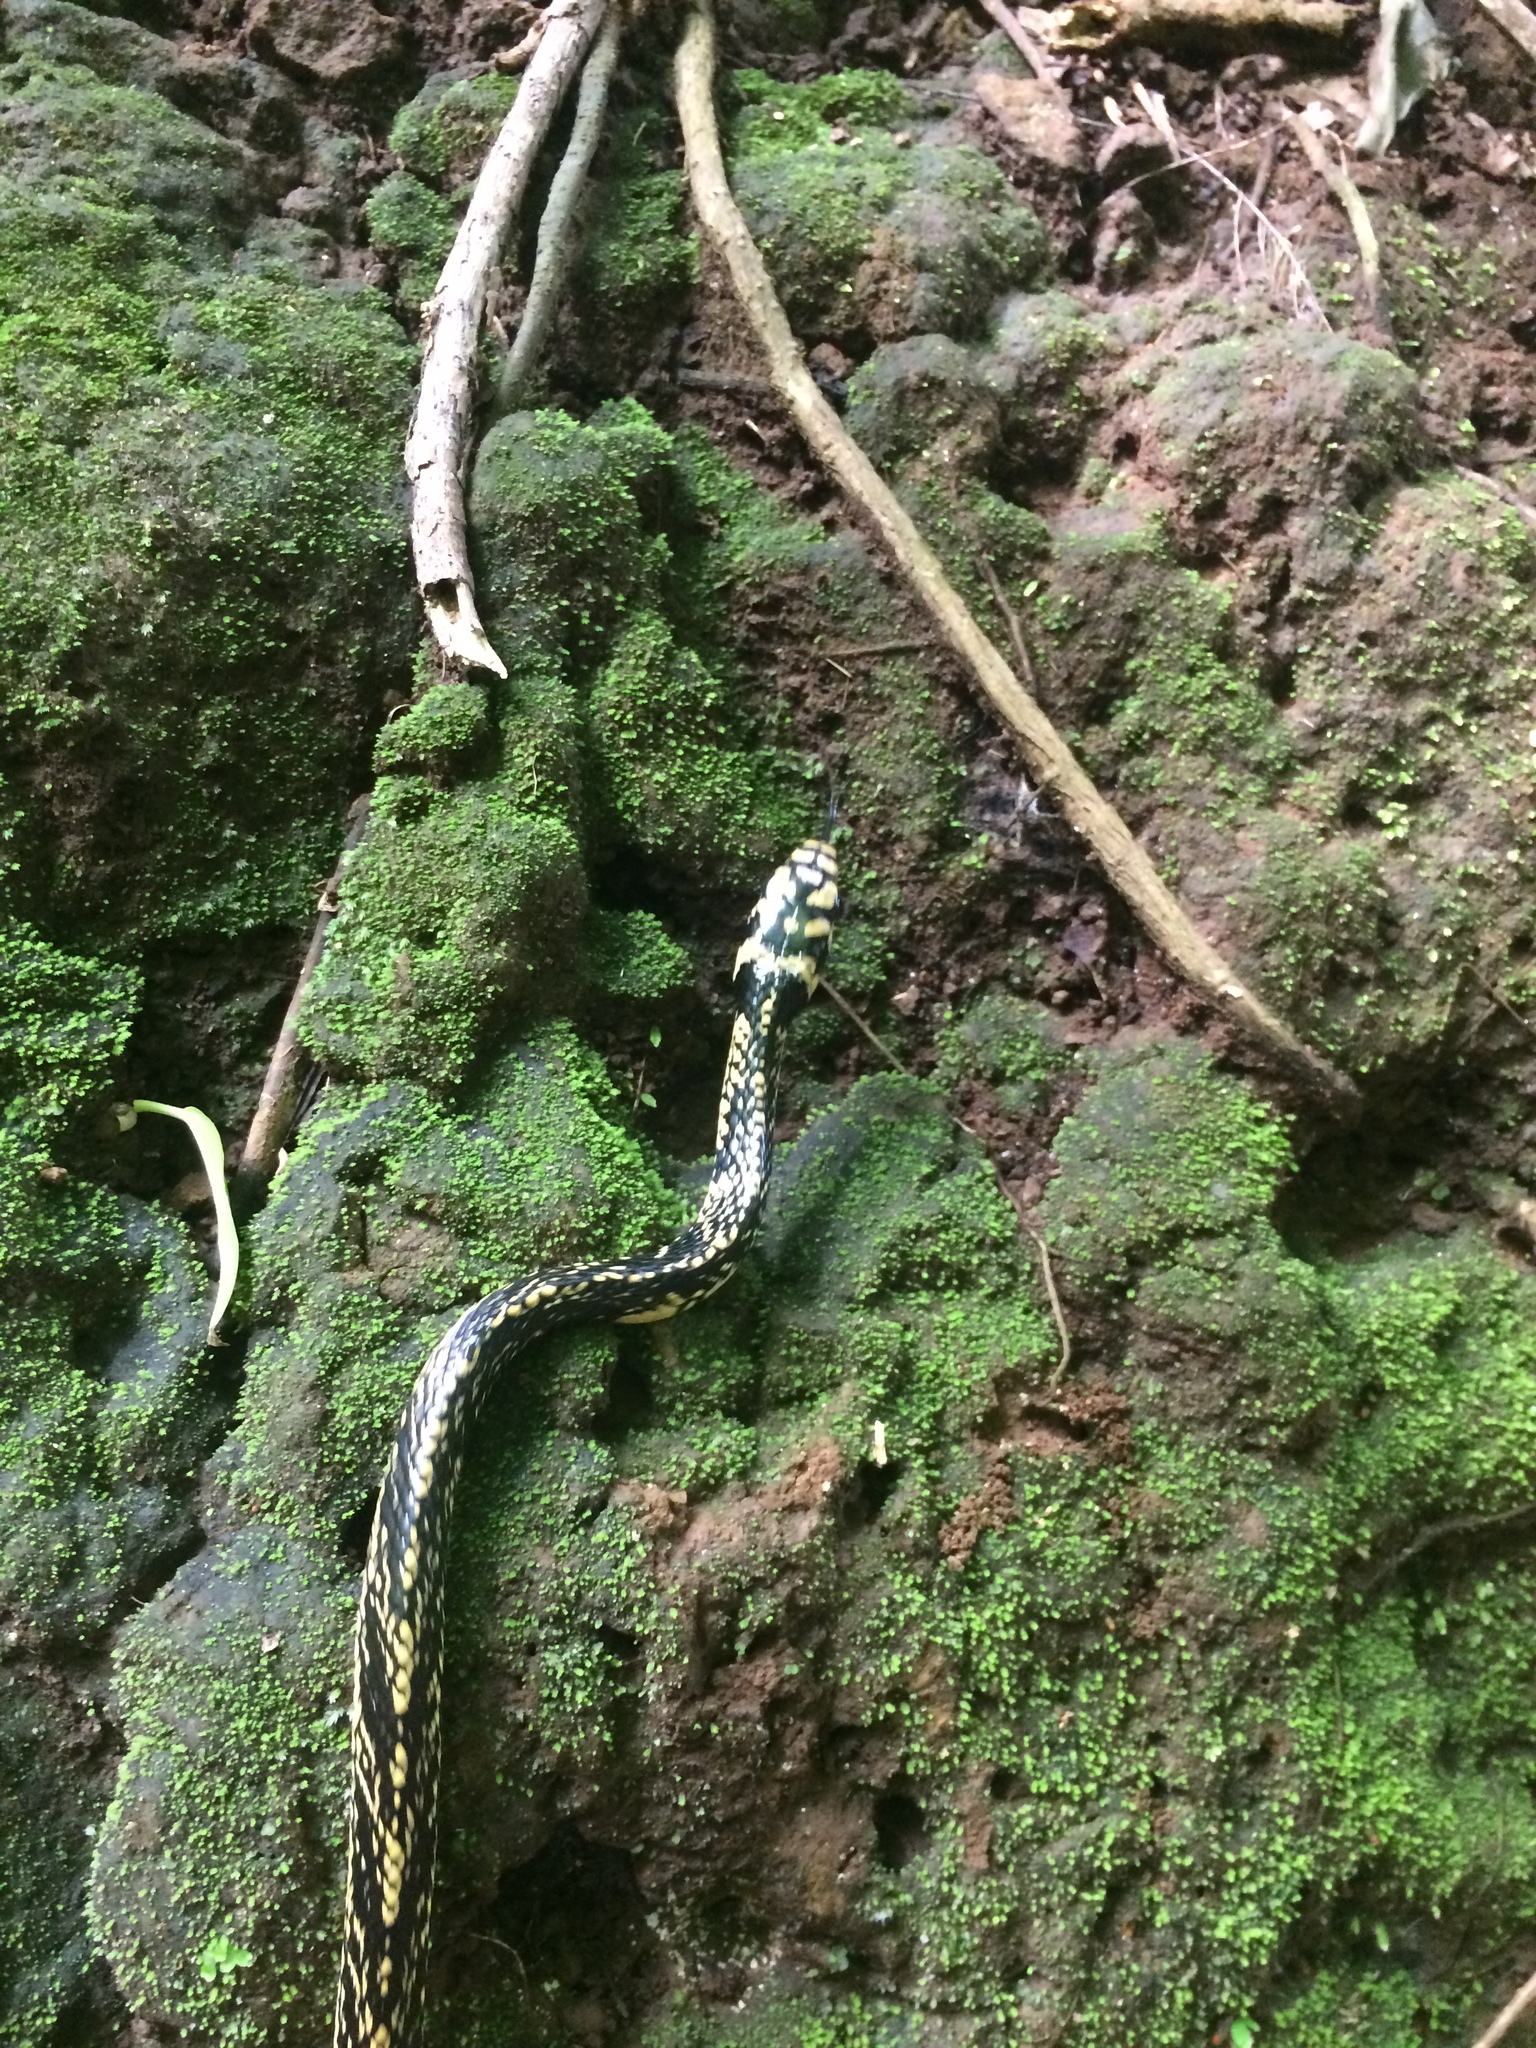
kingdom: Animalia
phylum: Chordata
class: Squamata
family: Colubridae
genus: Spilotes
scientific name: Spilotes pullatus
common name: Chicken snake
